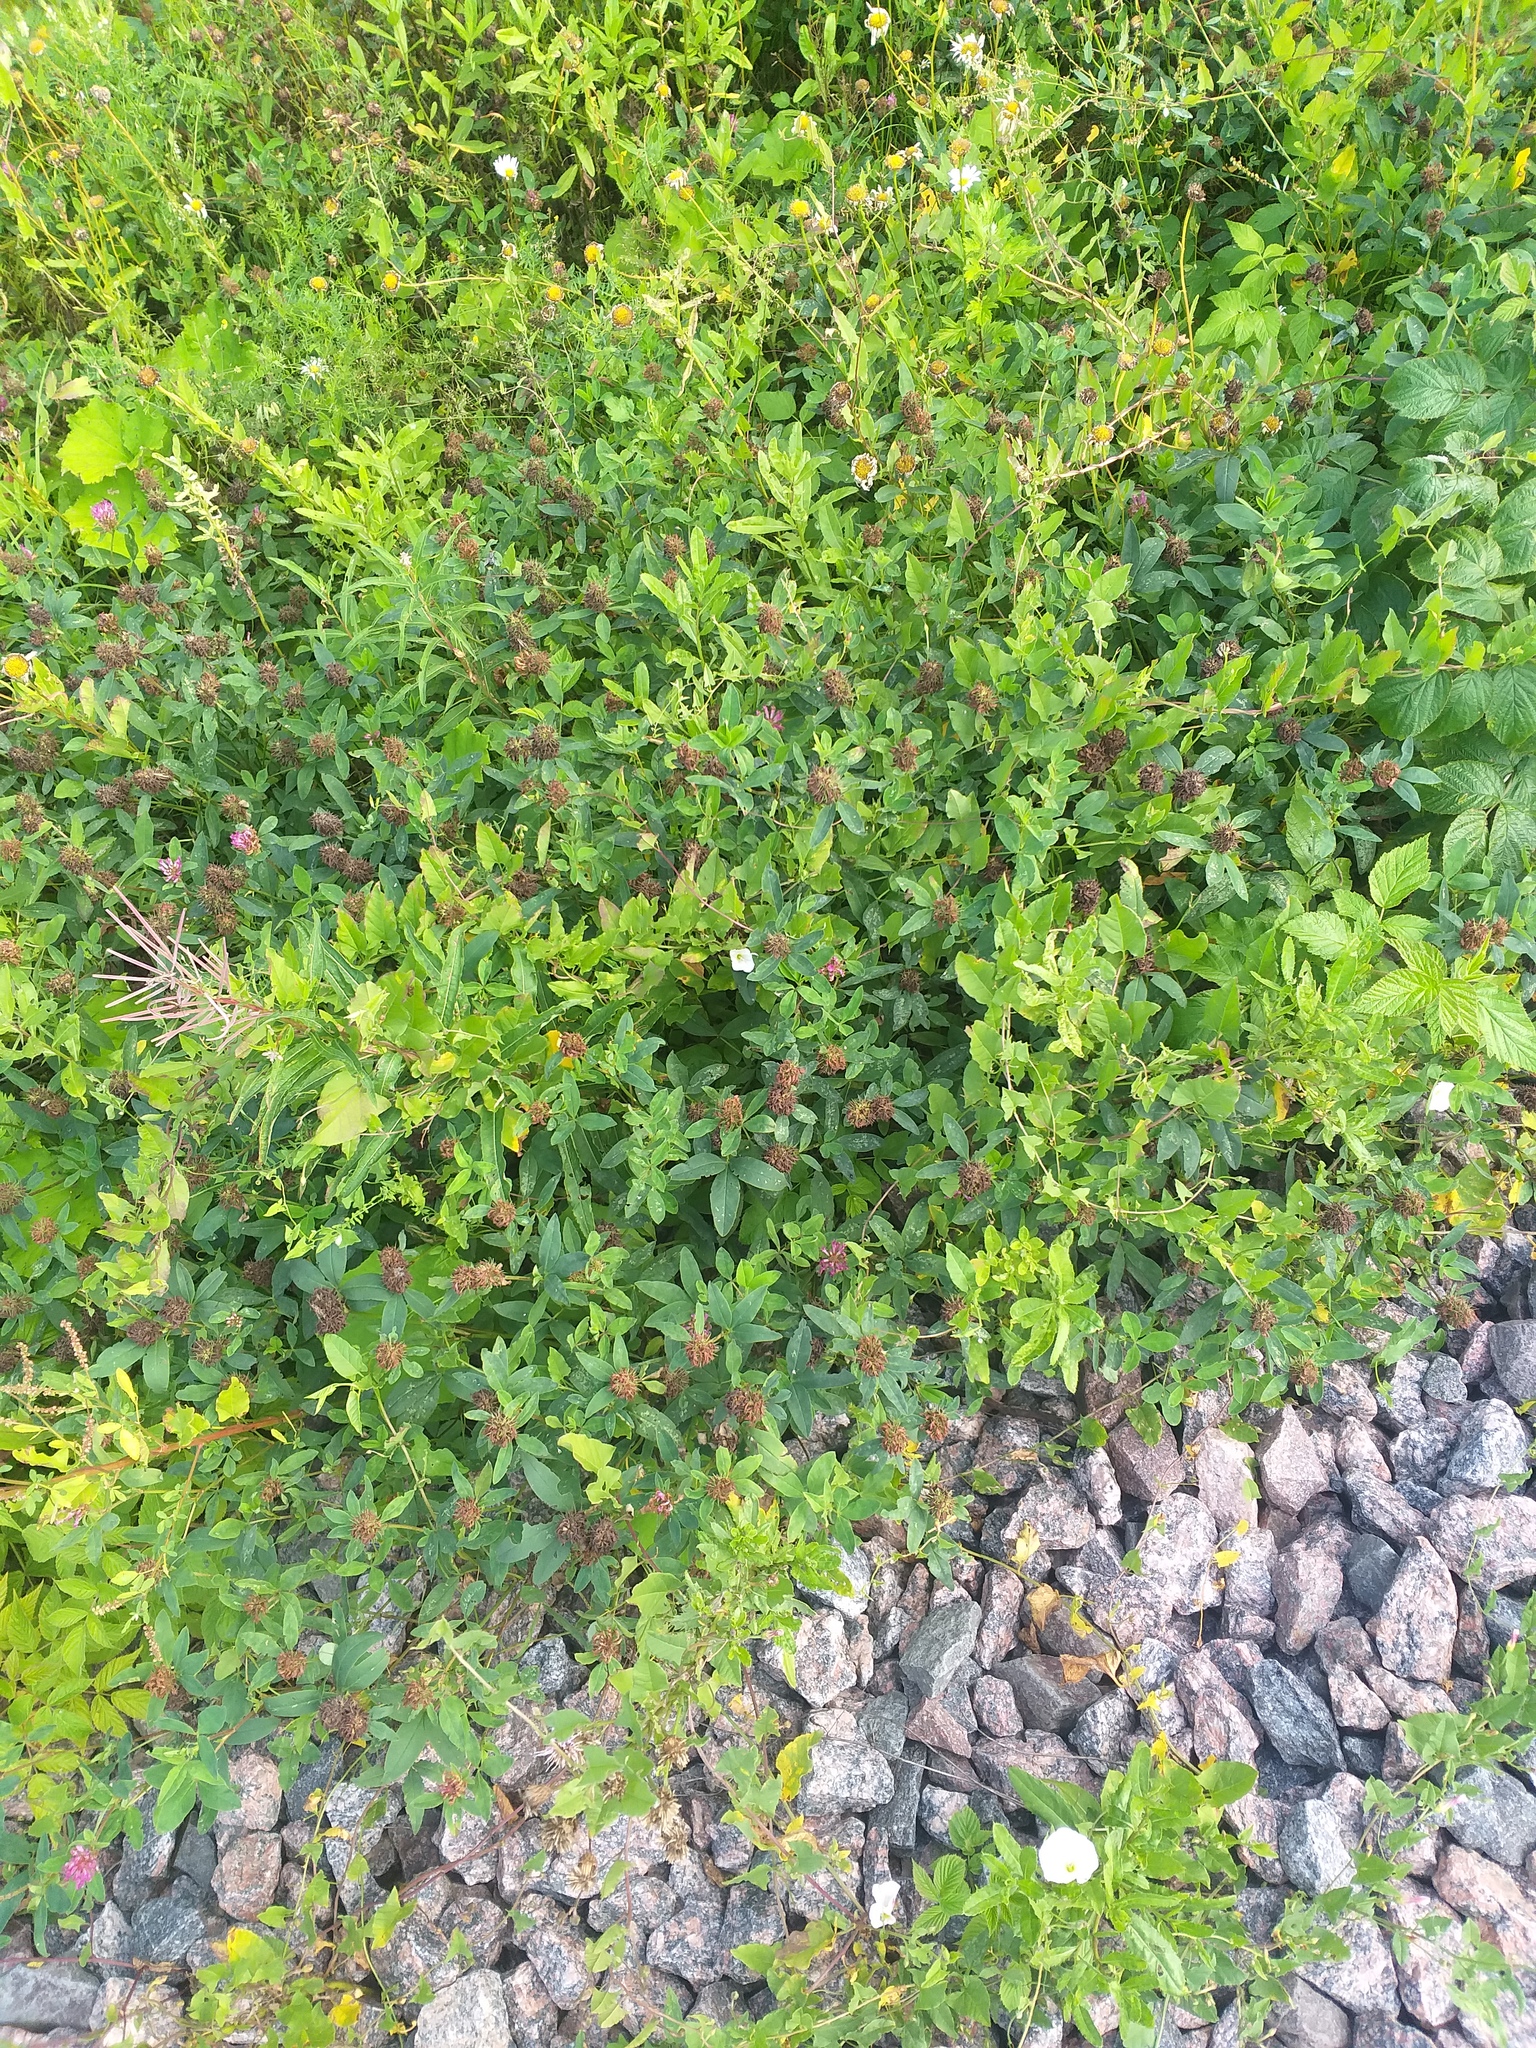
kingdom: Plantae
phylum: Tracheophyta
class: Magnoliopsida
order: Fabales
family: Fabaceae
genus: Trifolium
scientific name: Trifolium medium
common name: Zigzag clover
